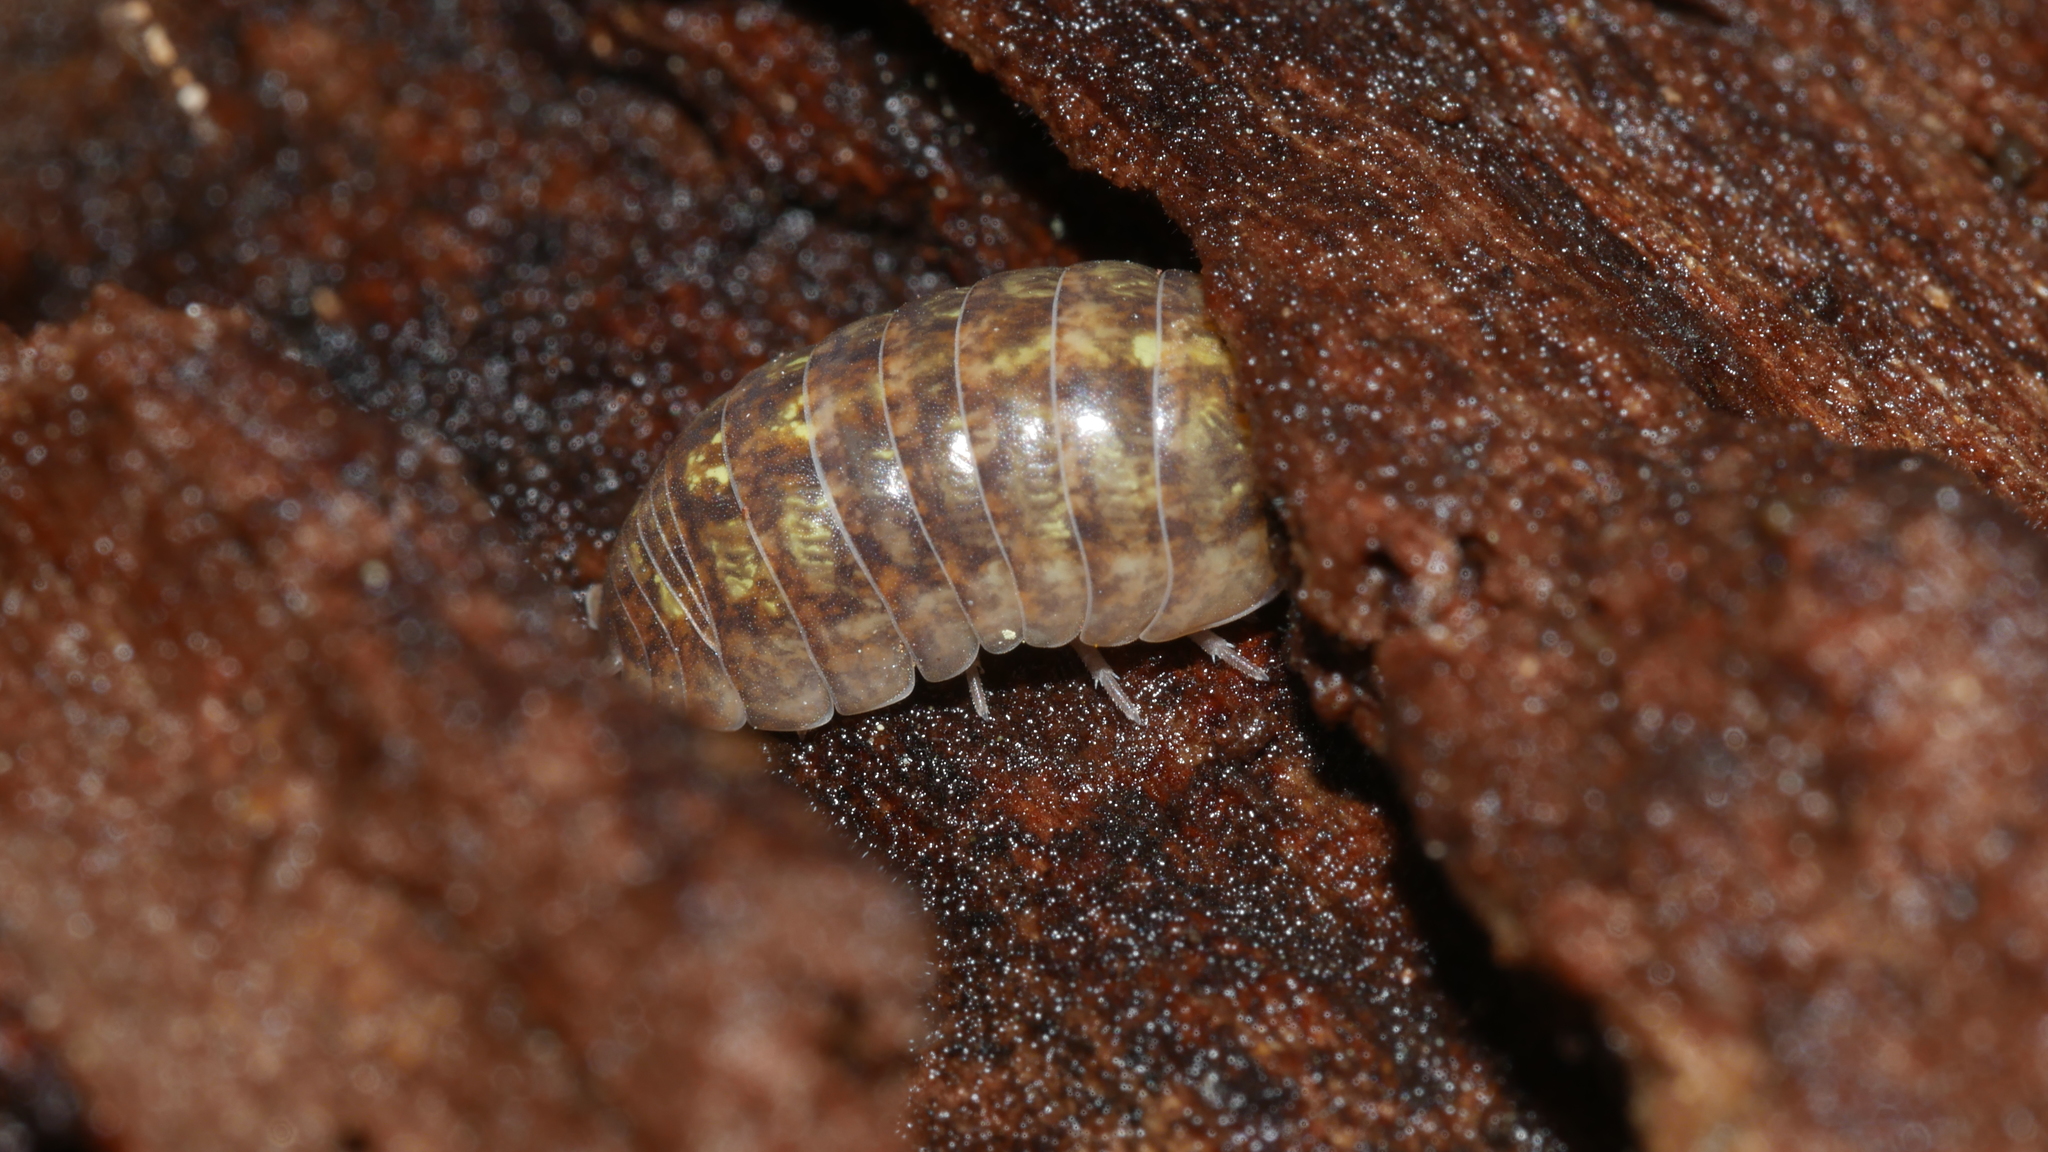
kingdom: Animalia
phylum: Arthropoda
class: Malacostraca
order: Isopoda
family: Armadillidiidae
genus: Armadillidium
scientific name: Armadillidium vulgare
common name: Common pill woodlouse
